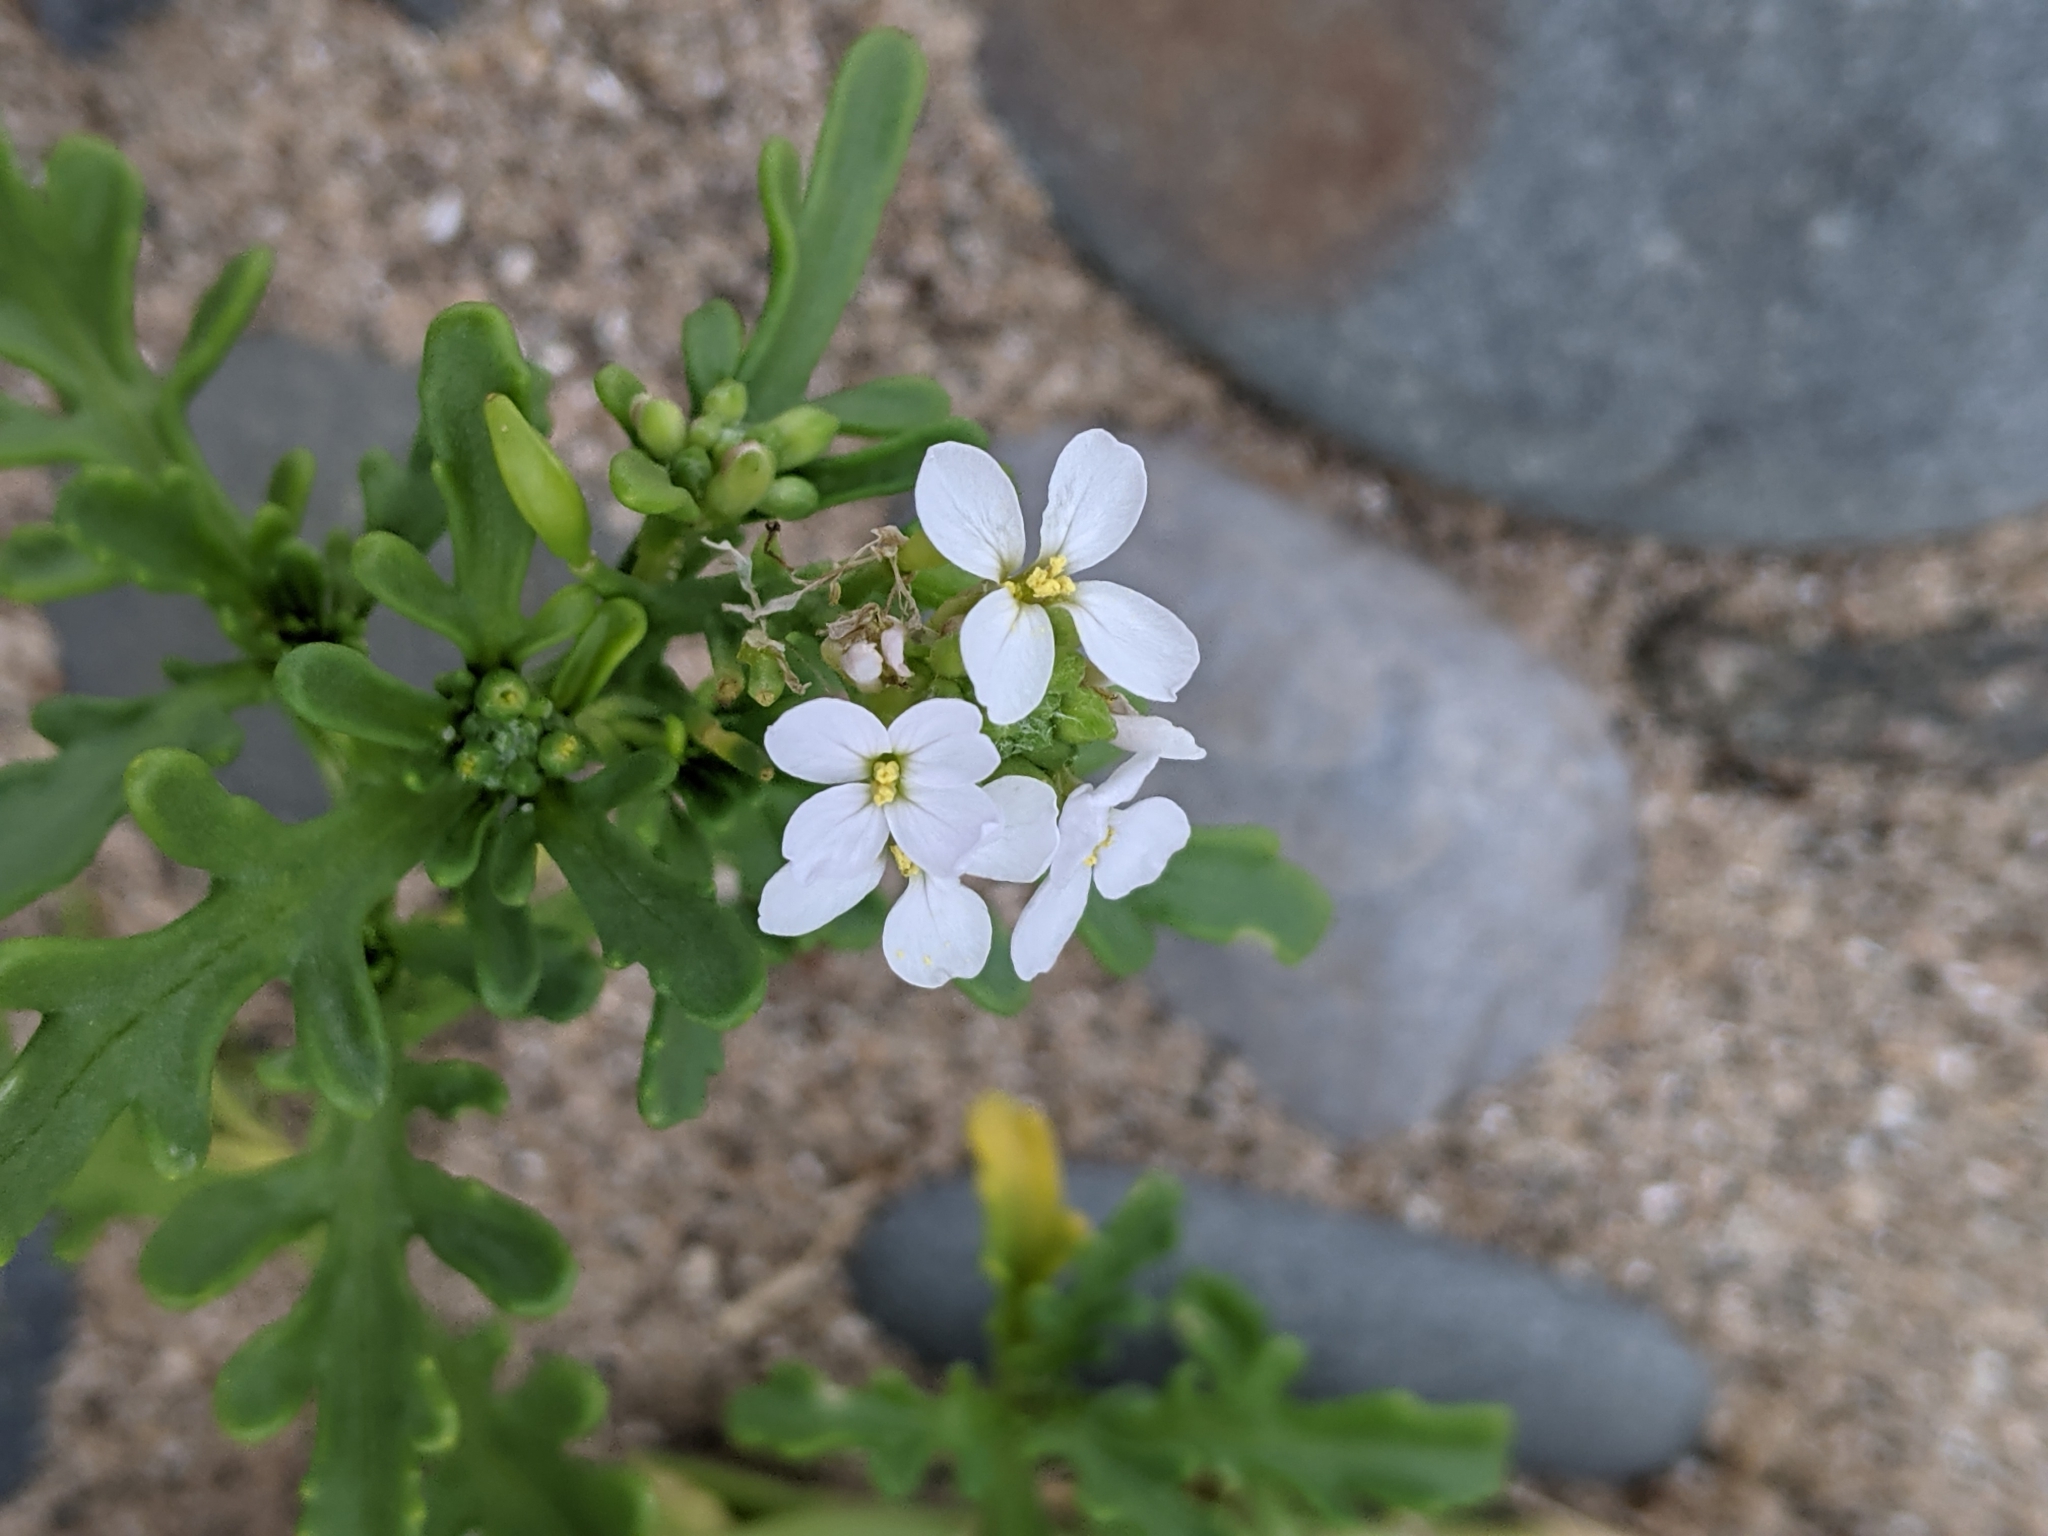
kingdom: Plantae
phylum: Tracheophyta
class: Magnoliopsida
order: Brassicales
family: Brassicaceae
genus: Cakile
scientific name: Cakile maritima
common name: Sea rocket
